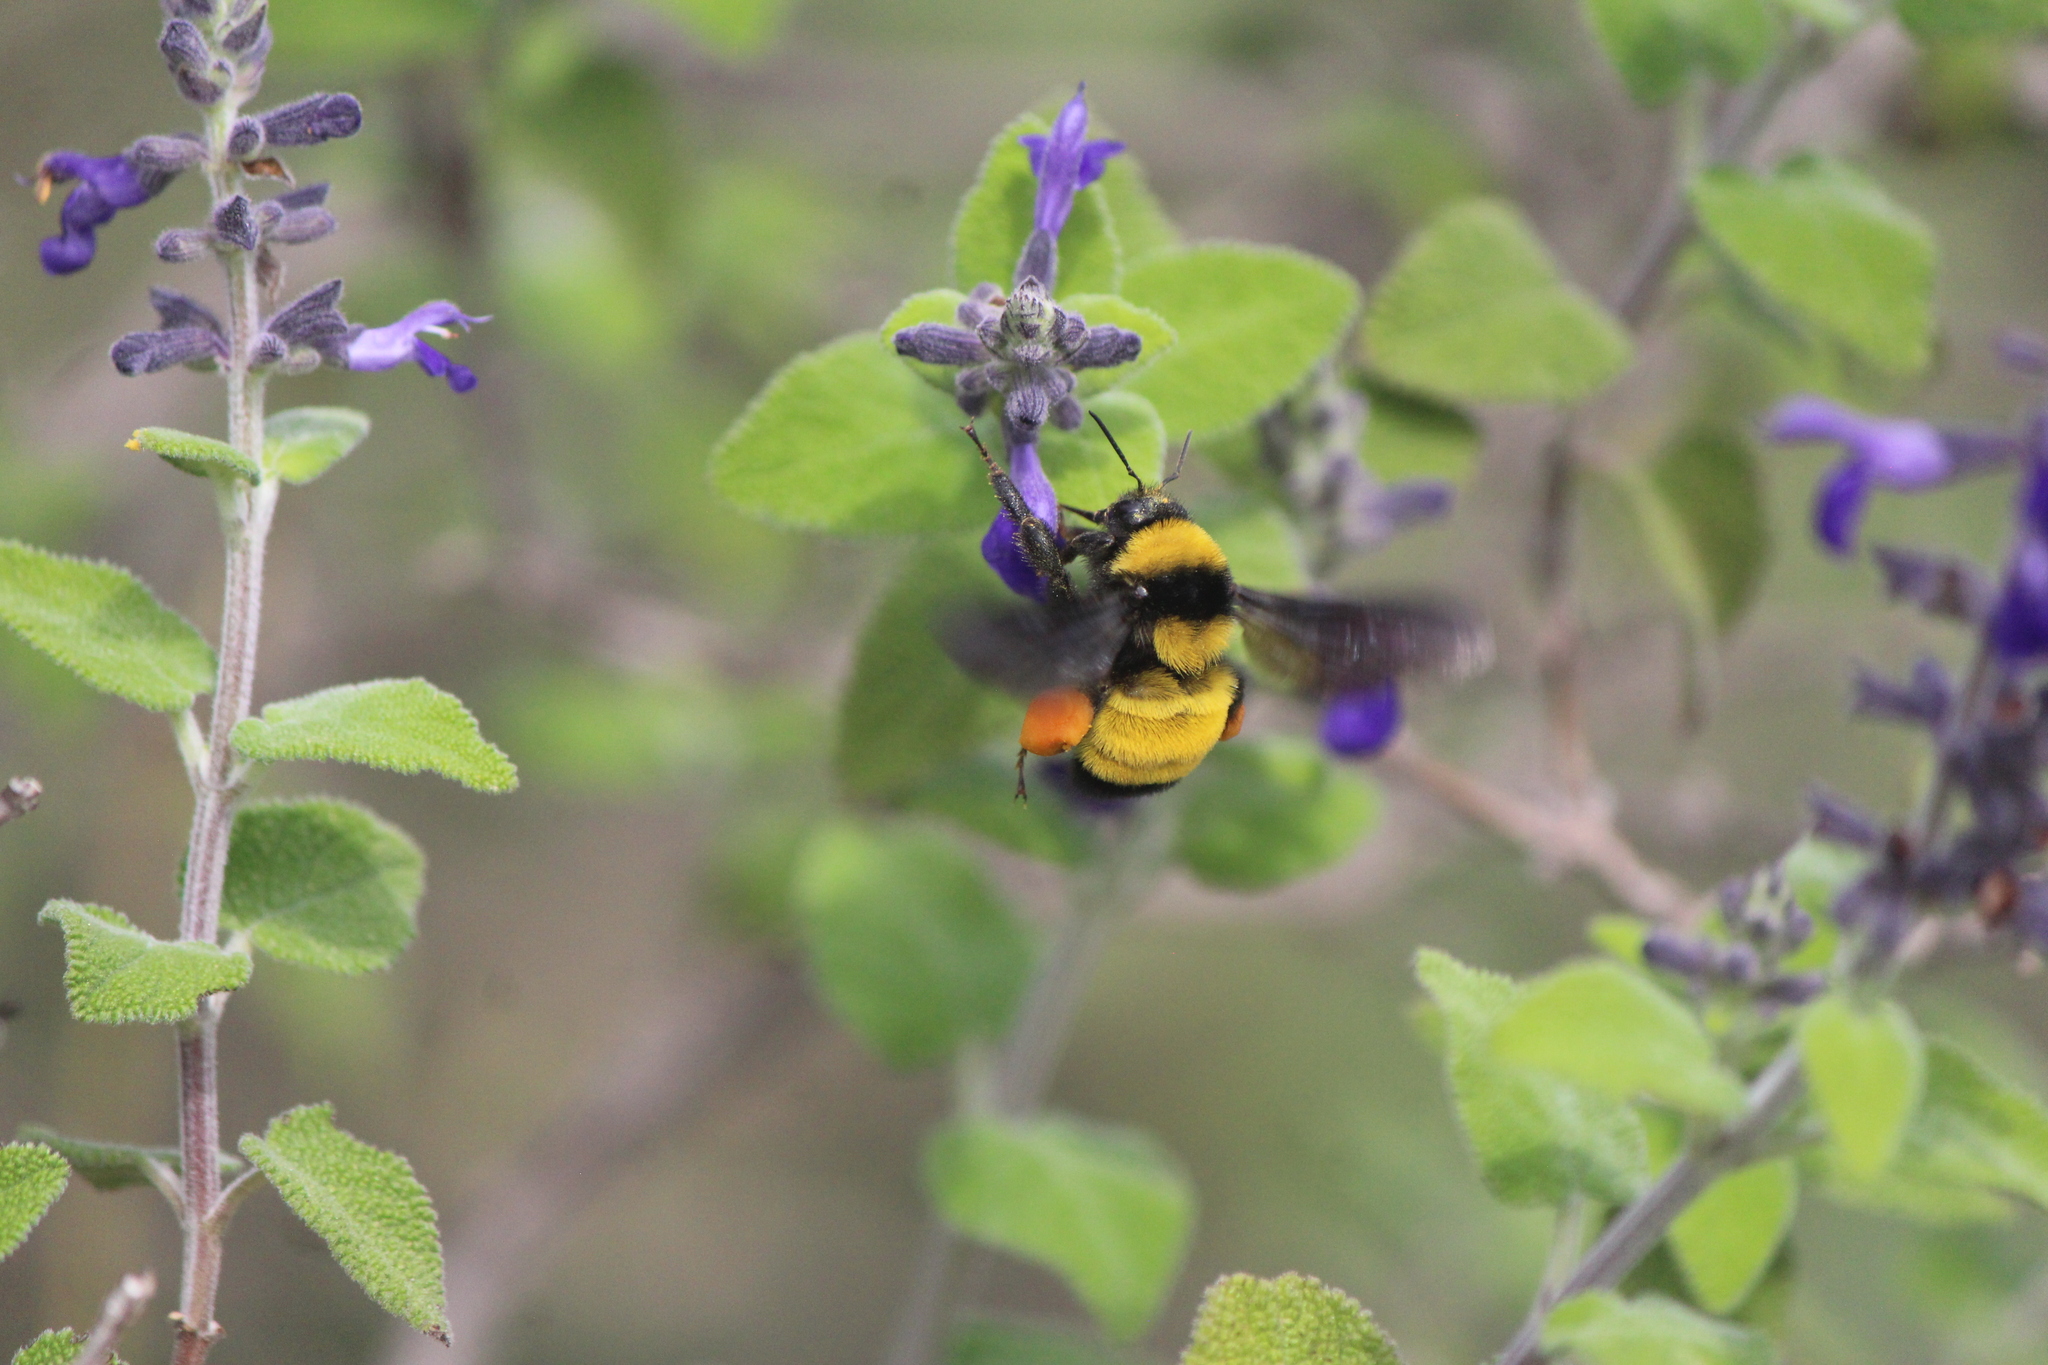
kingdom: Animalia
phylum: Arthropoda
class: Insecta
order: Hymenoptera
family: Apidae
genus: Bombus
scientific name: Bombus sonorus
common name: Sonoran bumble bee
